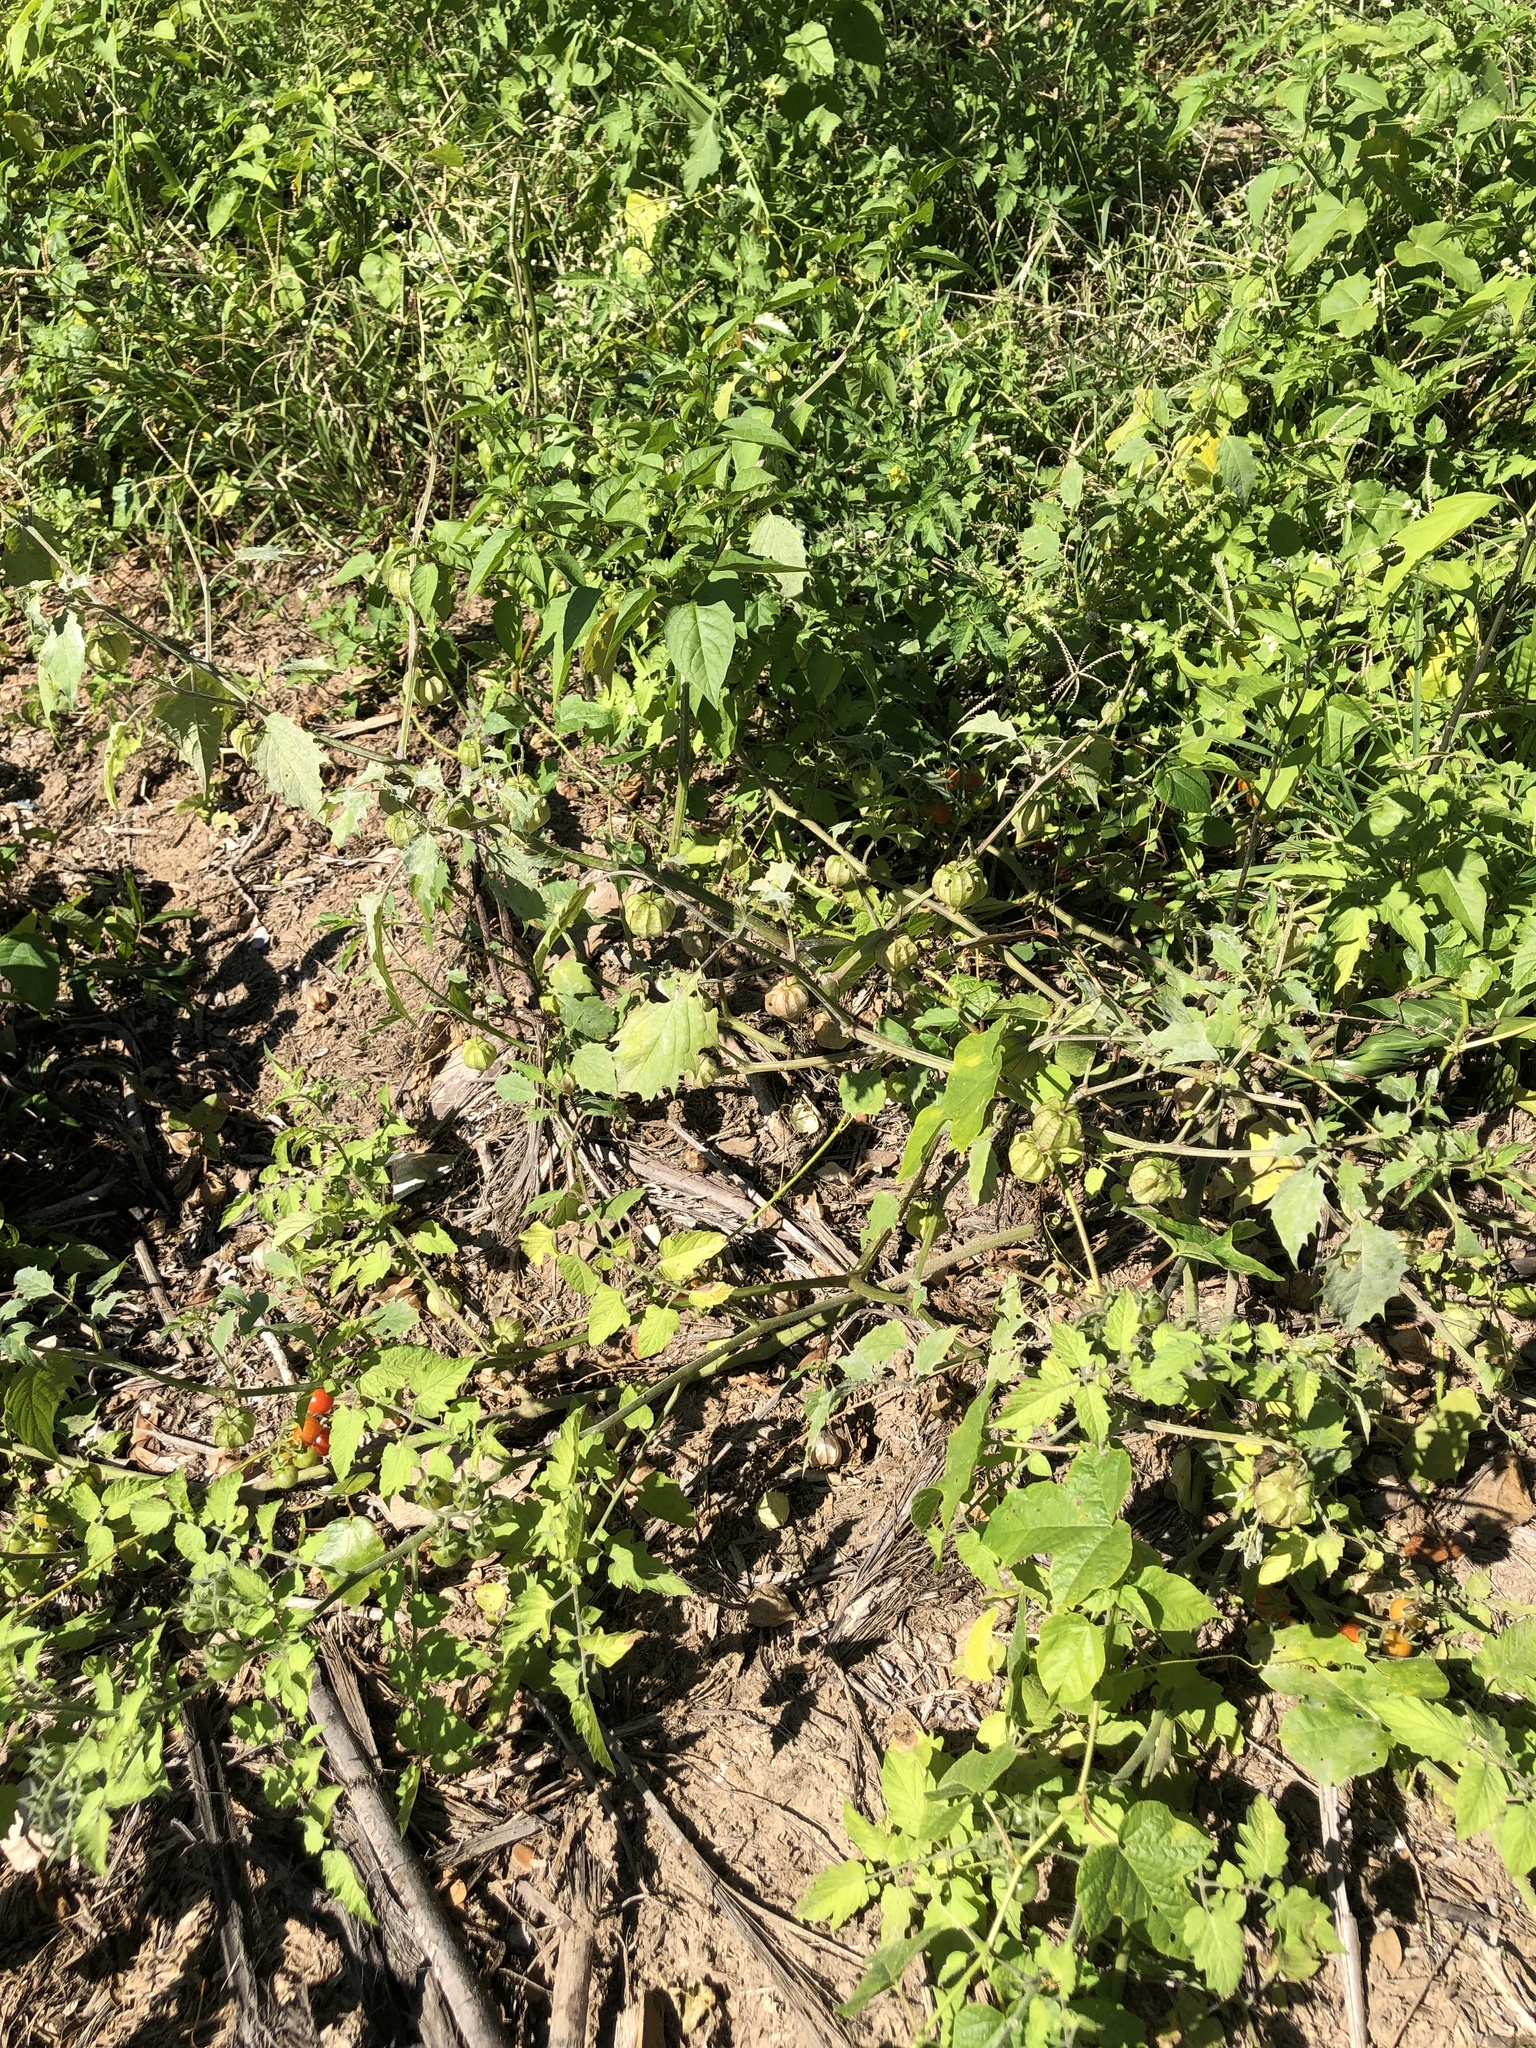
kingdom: Plantae
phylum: Tracheophyta
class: Magnoliopsida
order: Solanales
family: Solanaceae
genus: Physalis
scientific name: Physalis angulata
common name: Angular winter-cherry
